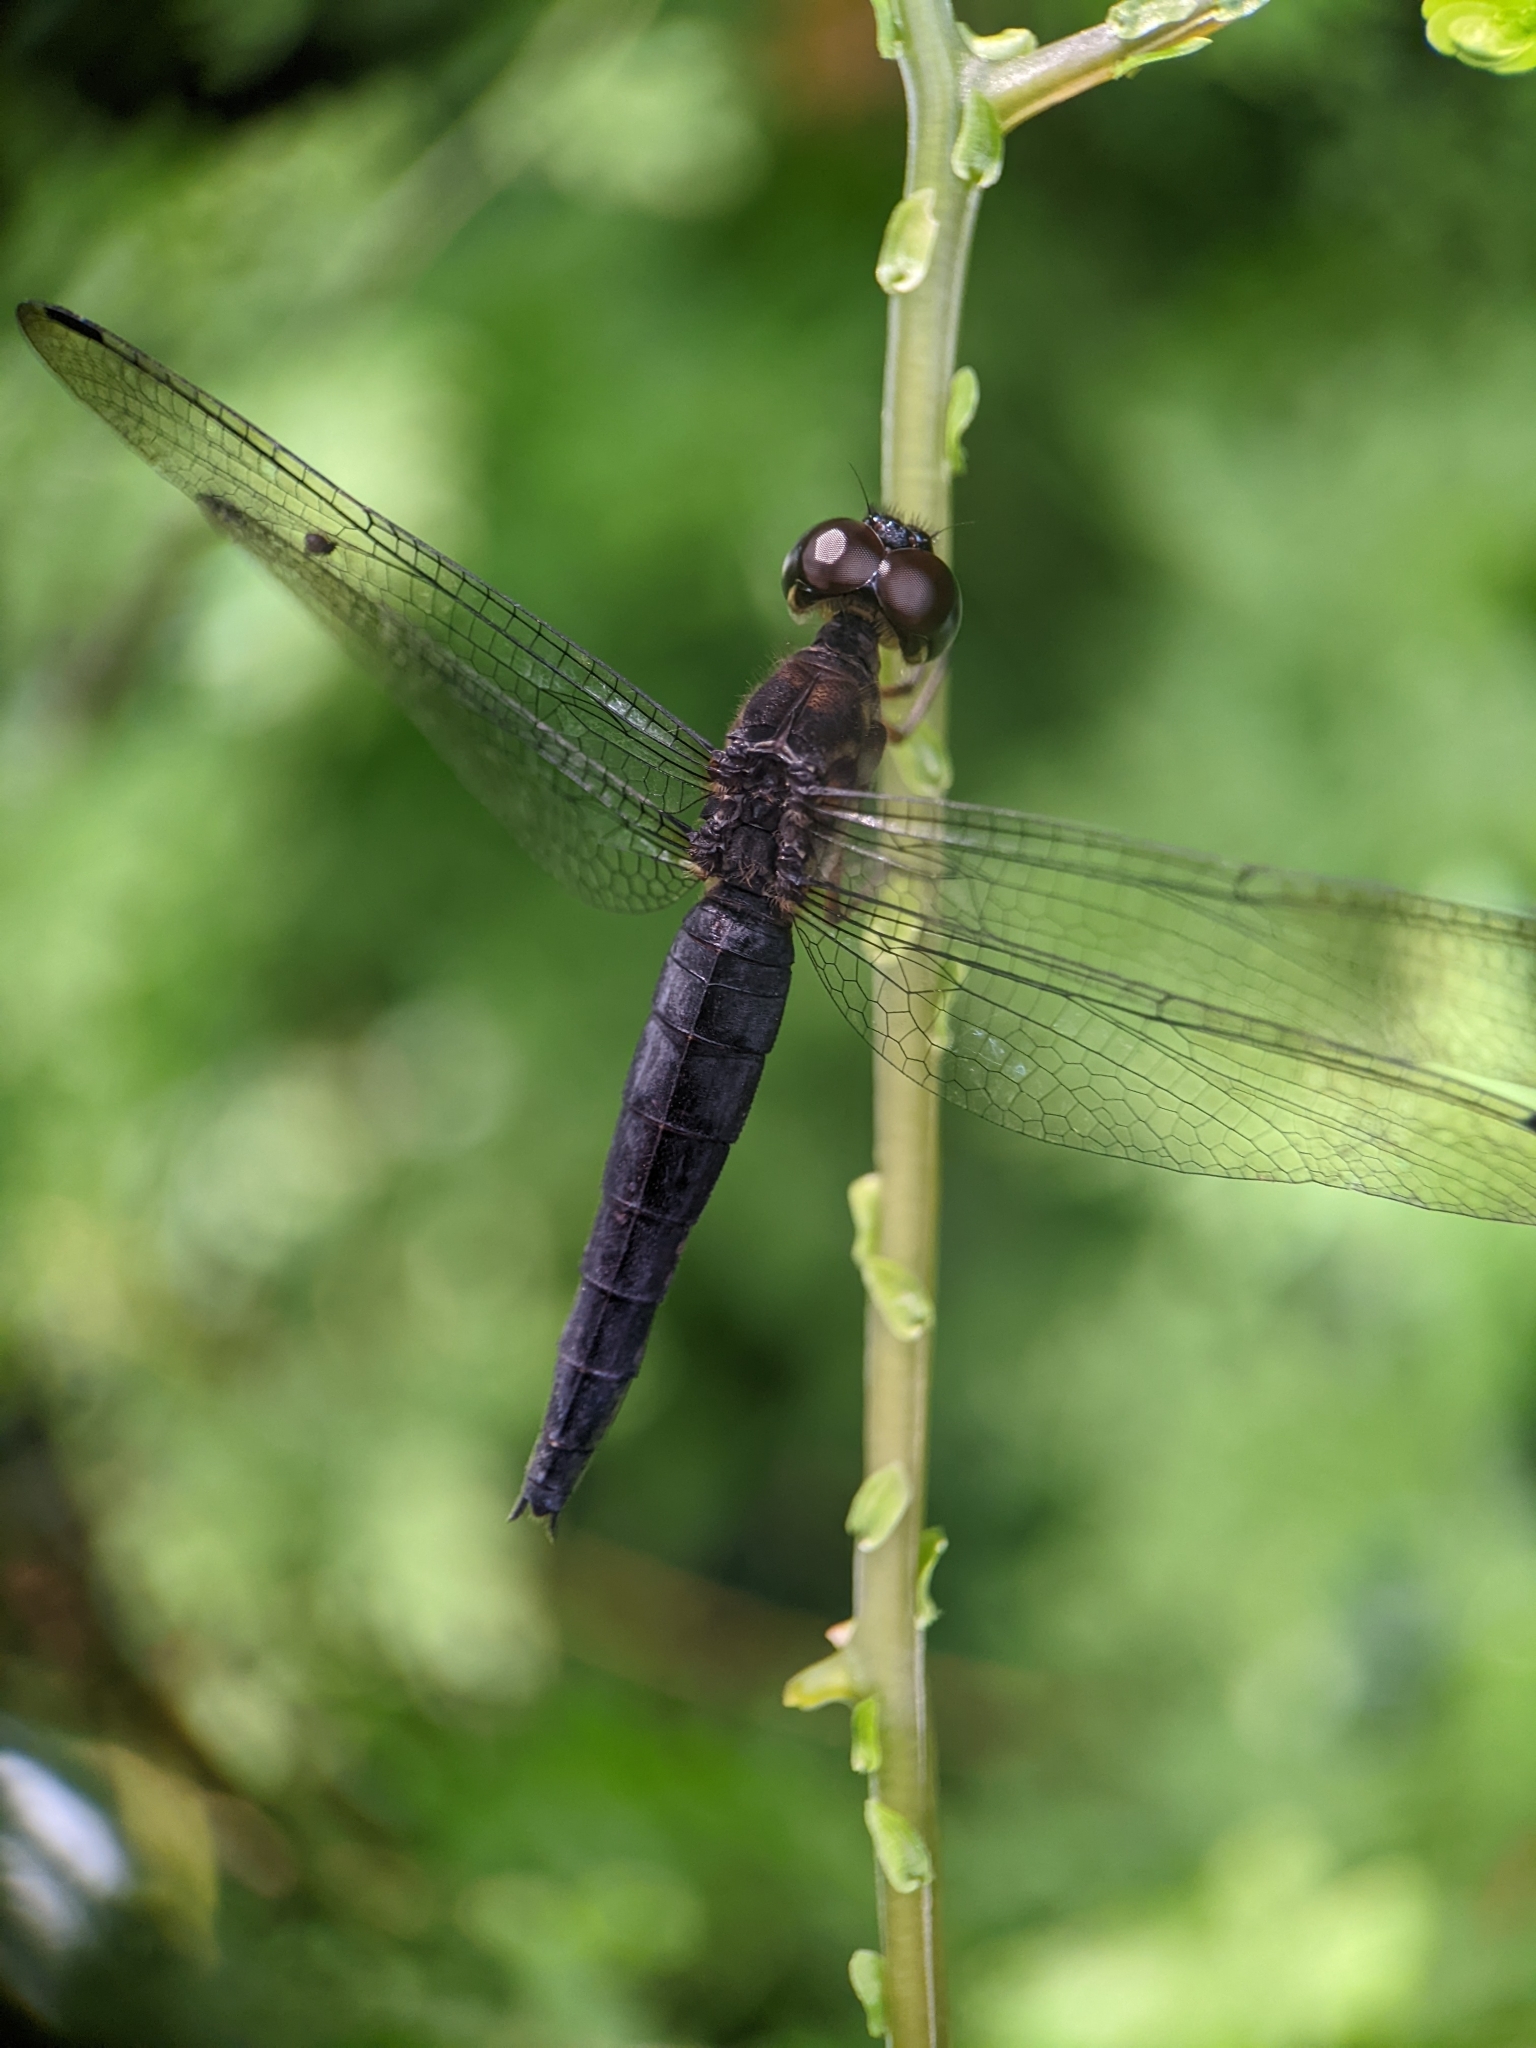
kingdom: Animalia
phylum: Arthropoda
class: Insecta
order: Odonata
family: Libellulidae
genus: Orchithemis
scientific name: Orchithemis pulcherrima
